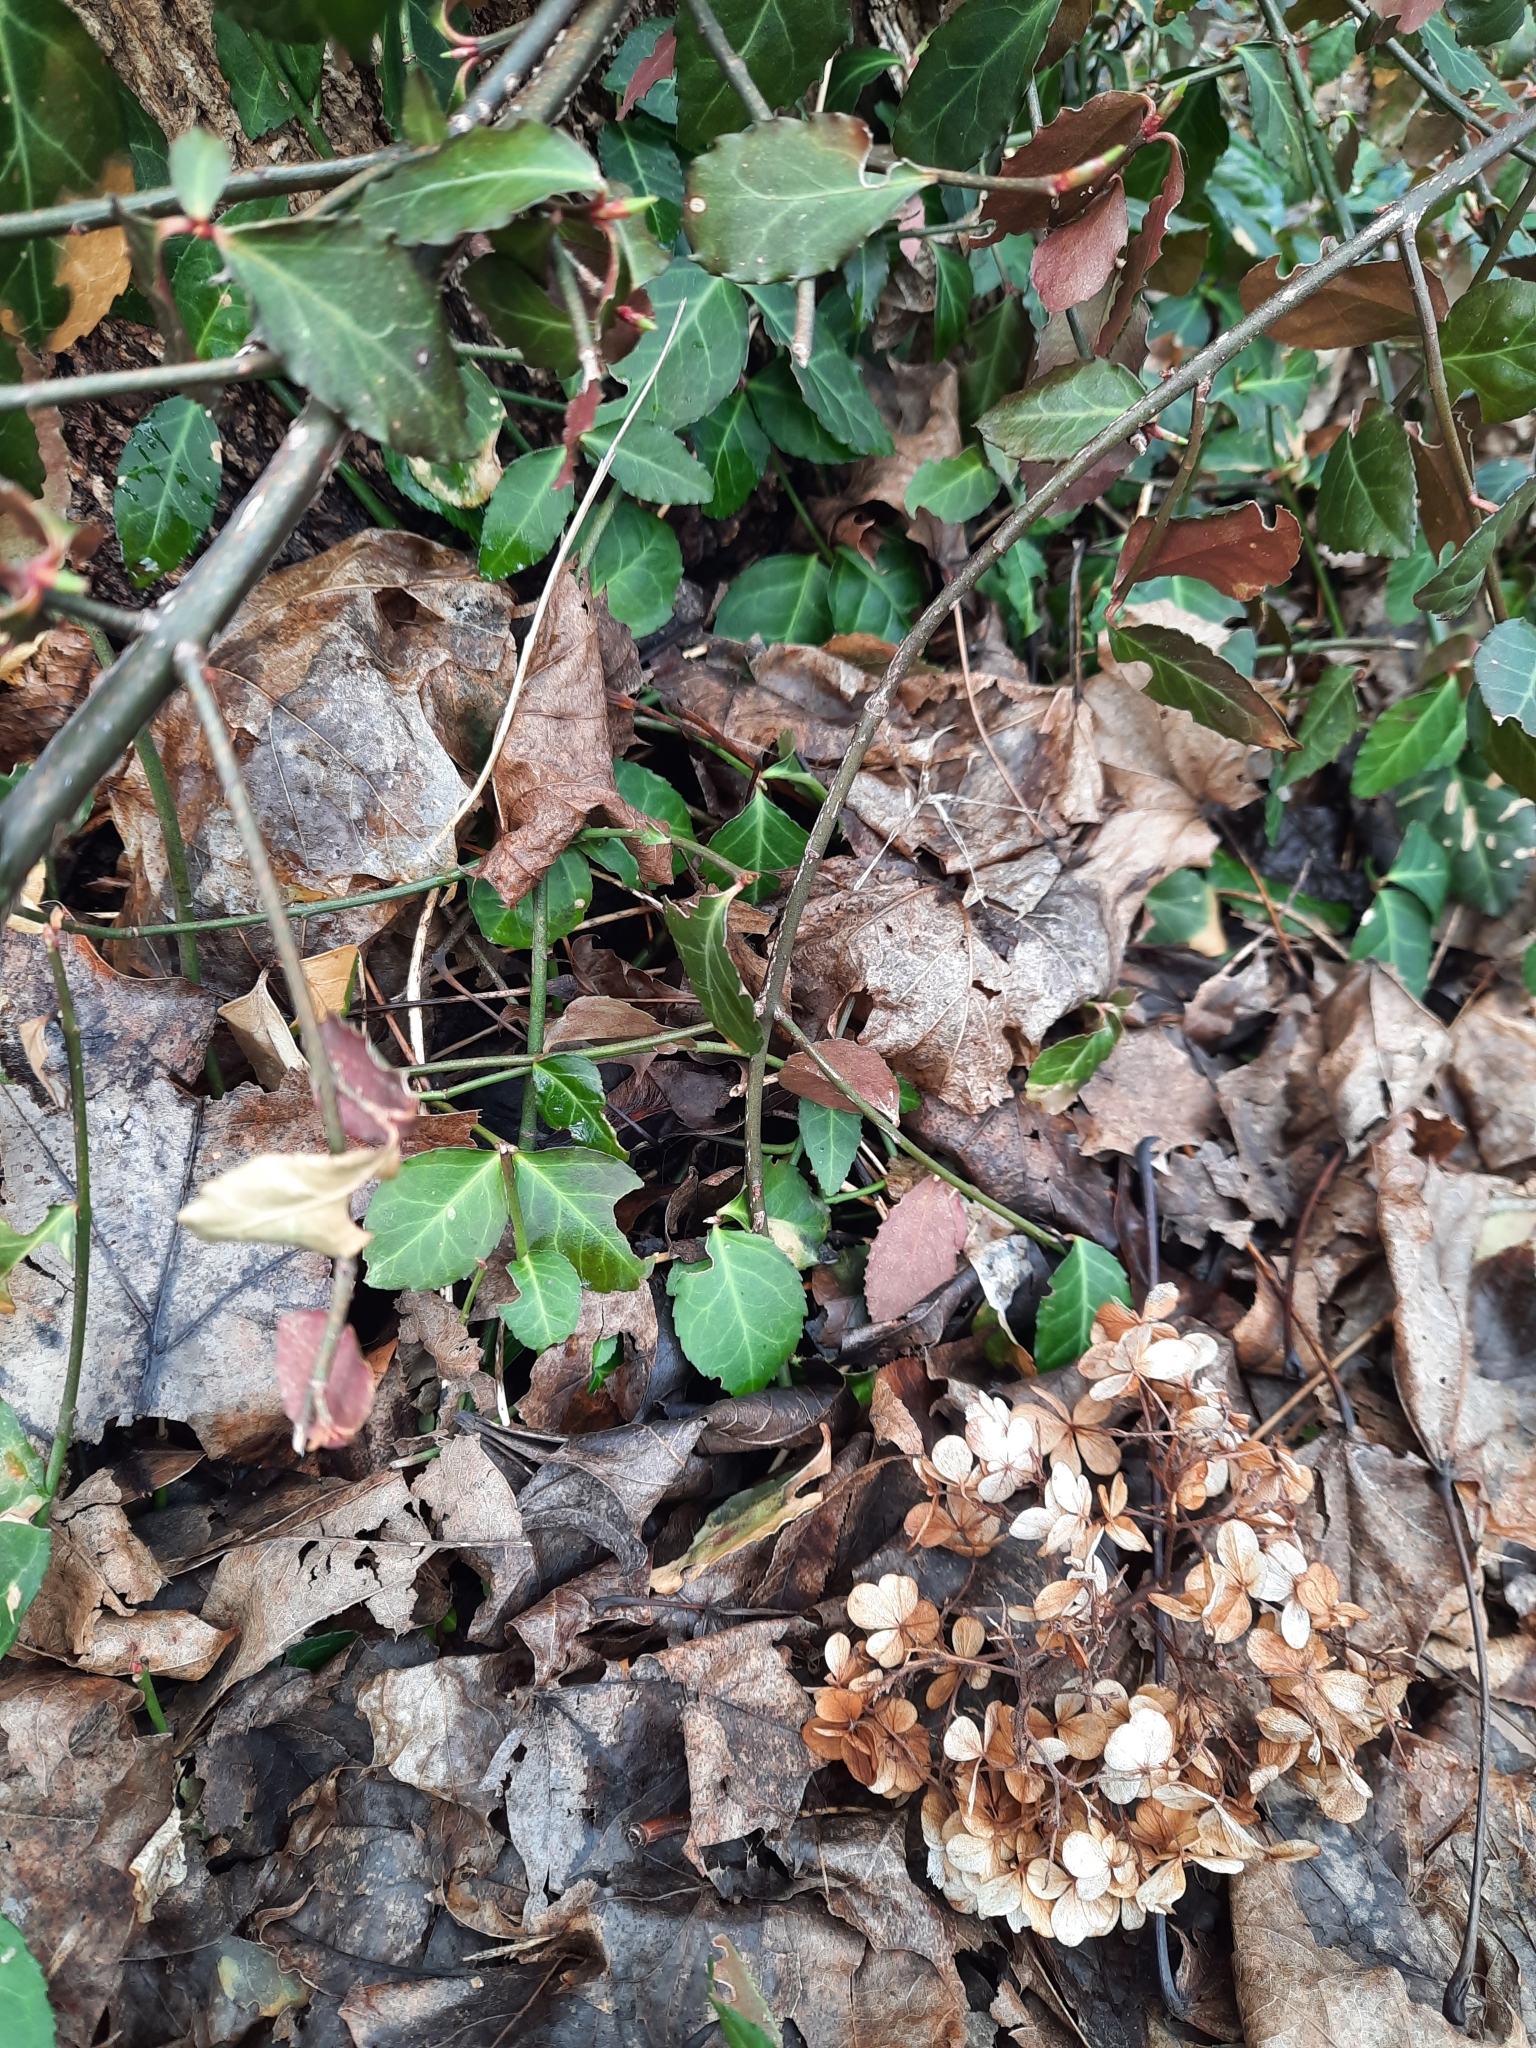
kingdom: Plantae
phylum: Tracheophyta
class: Magnoliopsida
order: Celastrales
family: Celastraceae
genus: Euonymus
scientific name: Euonymus fortunei
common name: Climbing euonymus
